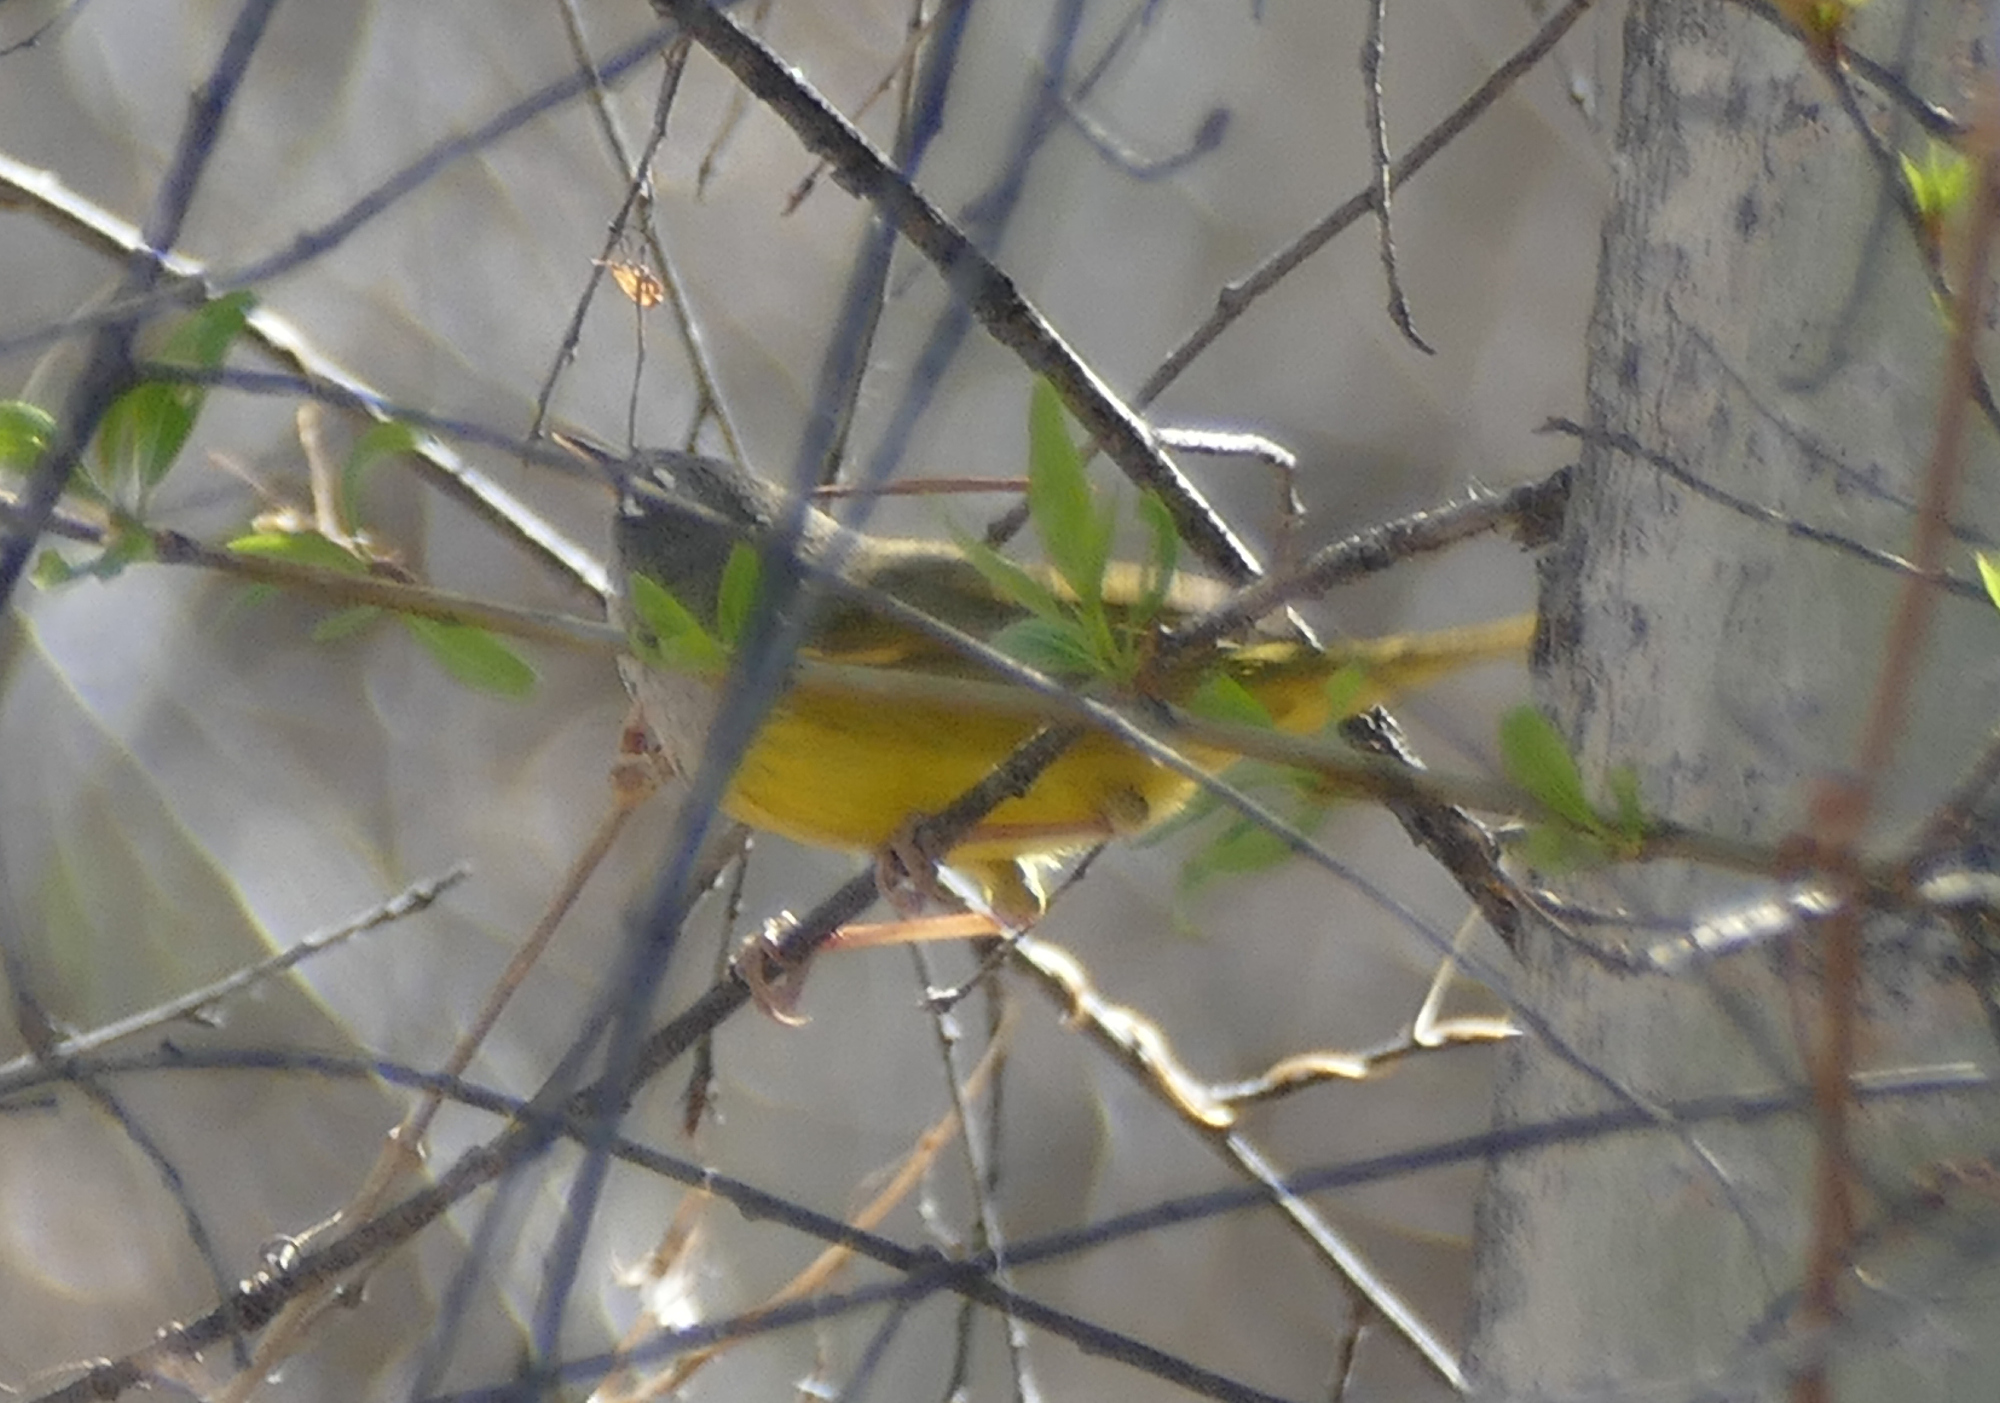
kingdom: Animalia
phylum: Chordata
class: Aves
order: Passeriformes
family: Parulidae
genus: Geothlypis
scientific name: Geothlypis tolmiei
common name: Macgillivray's warbler
